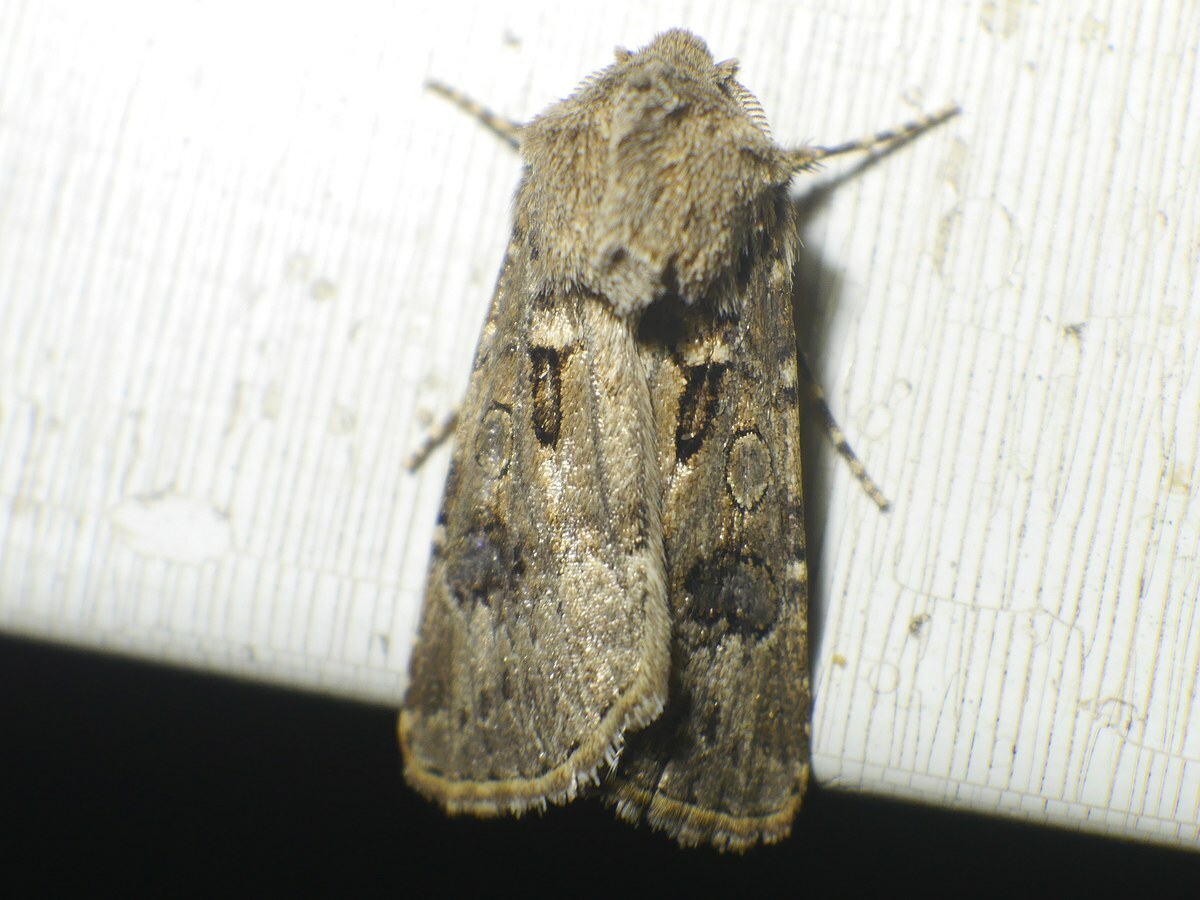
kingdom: Animalia
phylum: Arthropoda
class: Insecta
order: Lepidoptera
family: Noctuidae
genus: Agrotis
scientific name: Agrotis segetum
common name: Turnip moth
